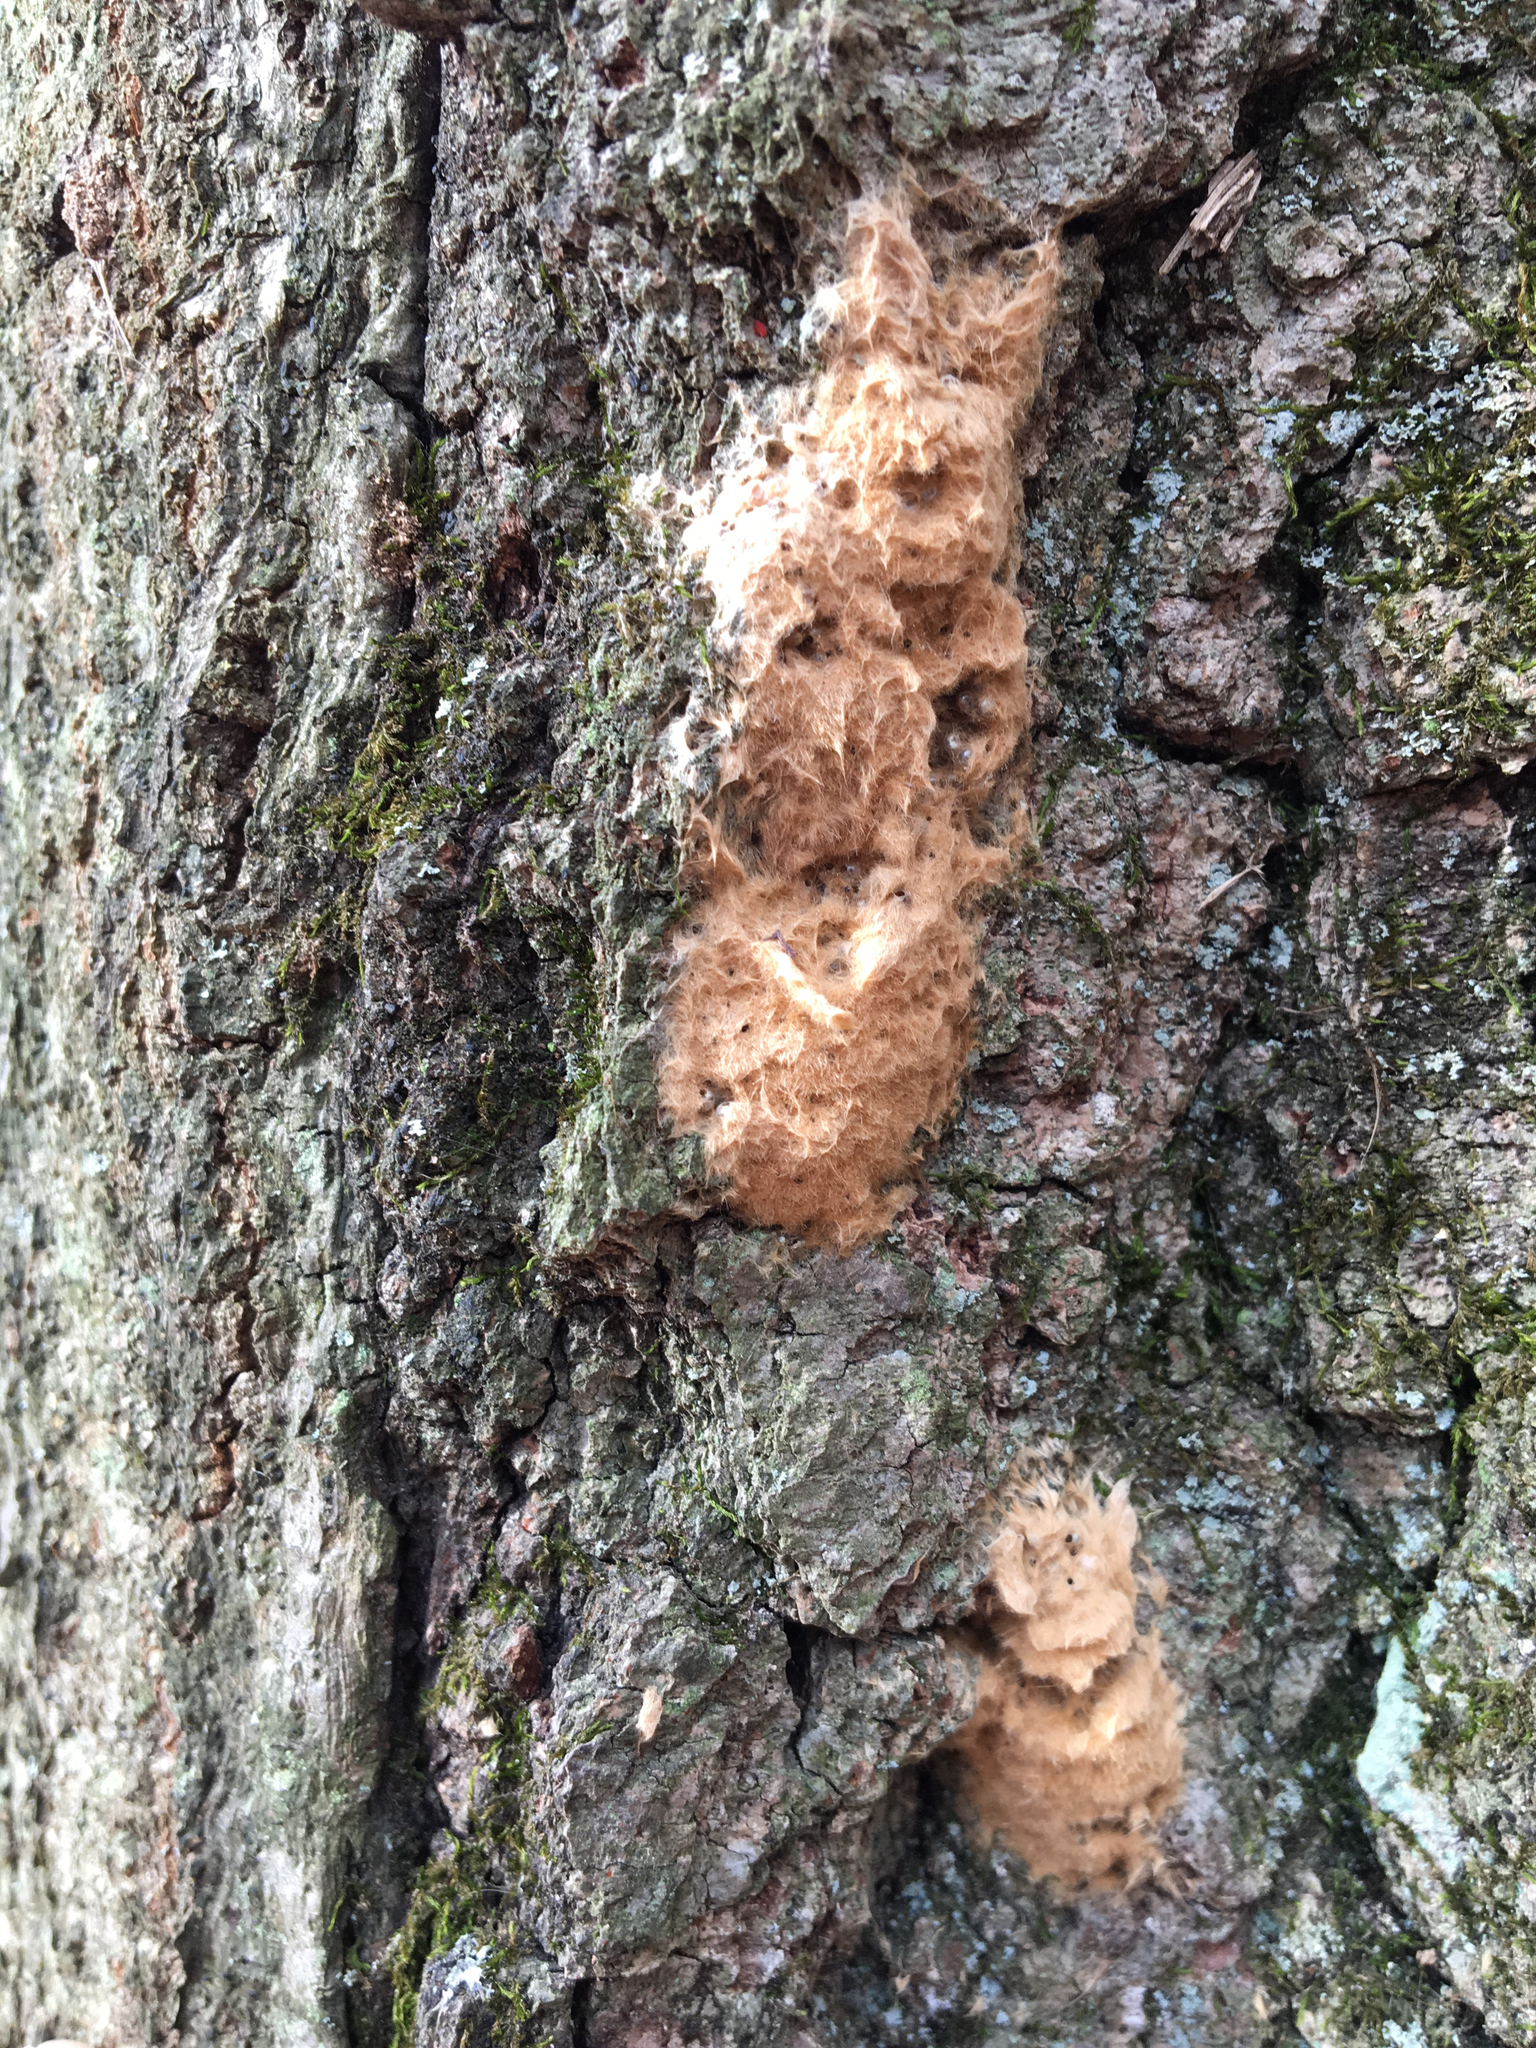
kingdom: Animalia
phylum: Arthropoda
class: Insecta
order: Lepidoptera
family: Erebidae
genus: Lymantria
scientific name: Lymantria dispar
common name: Gypsy moth
